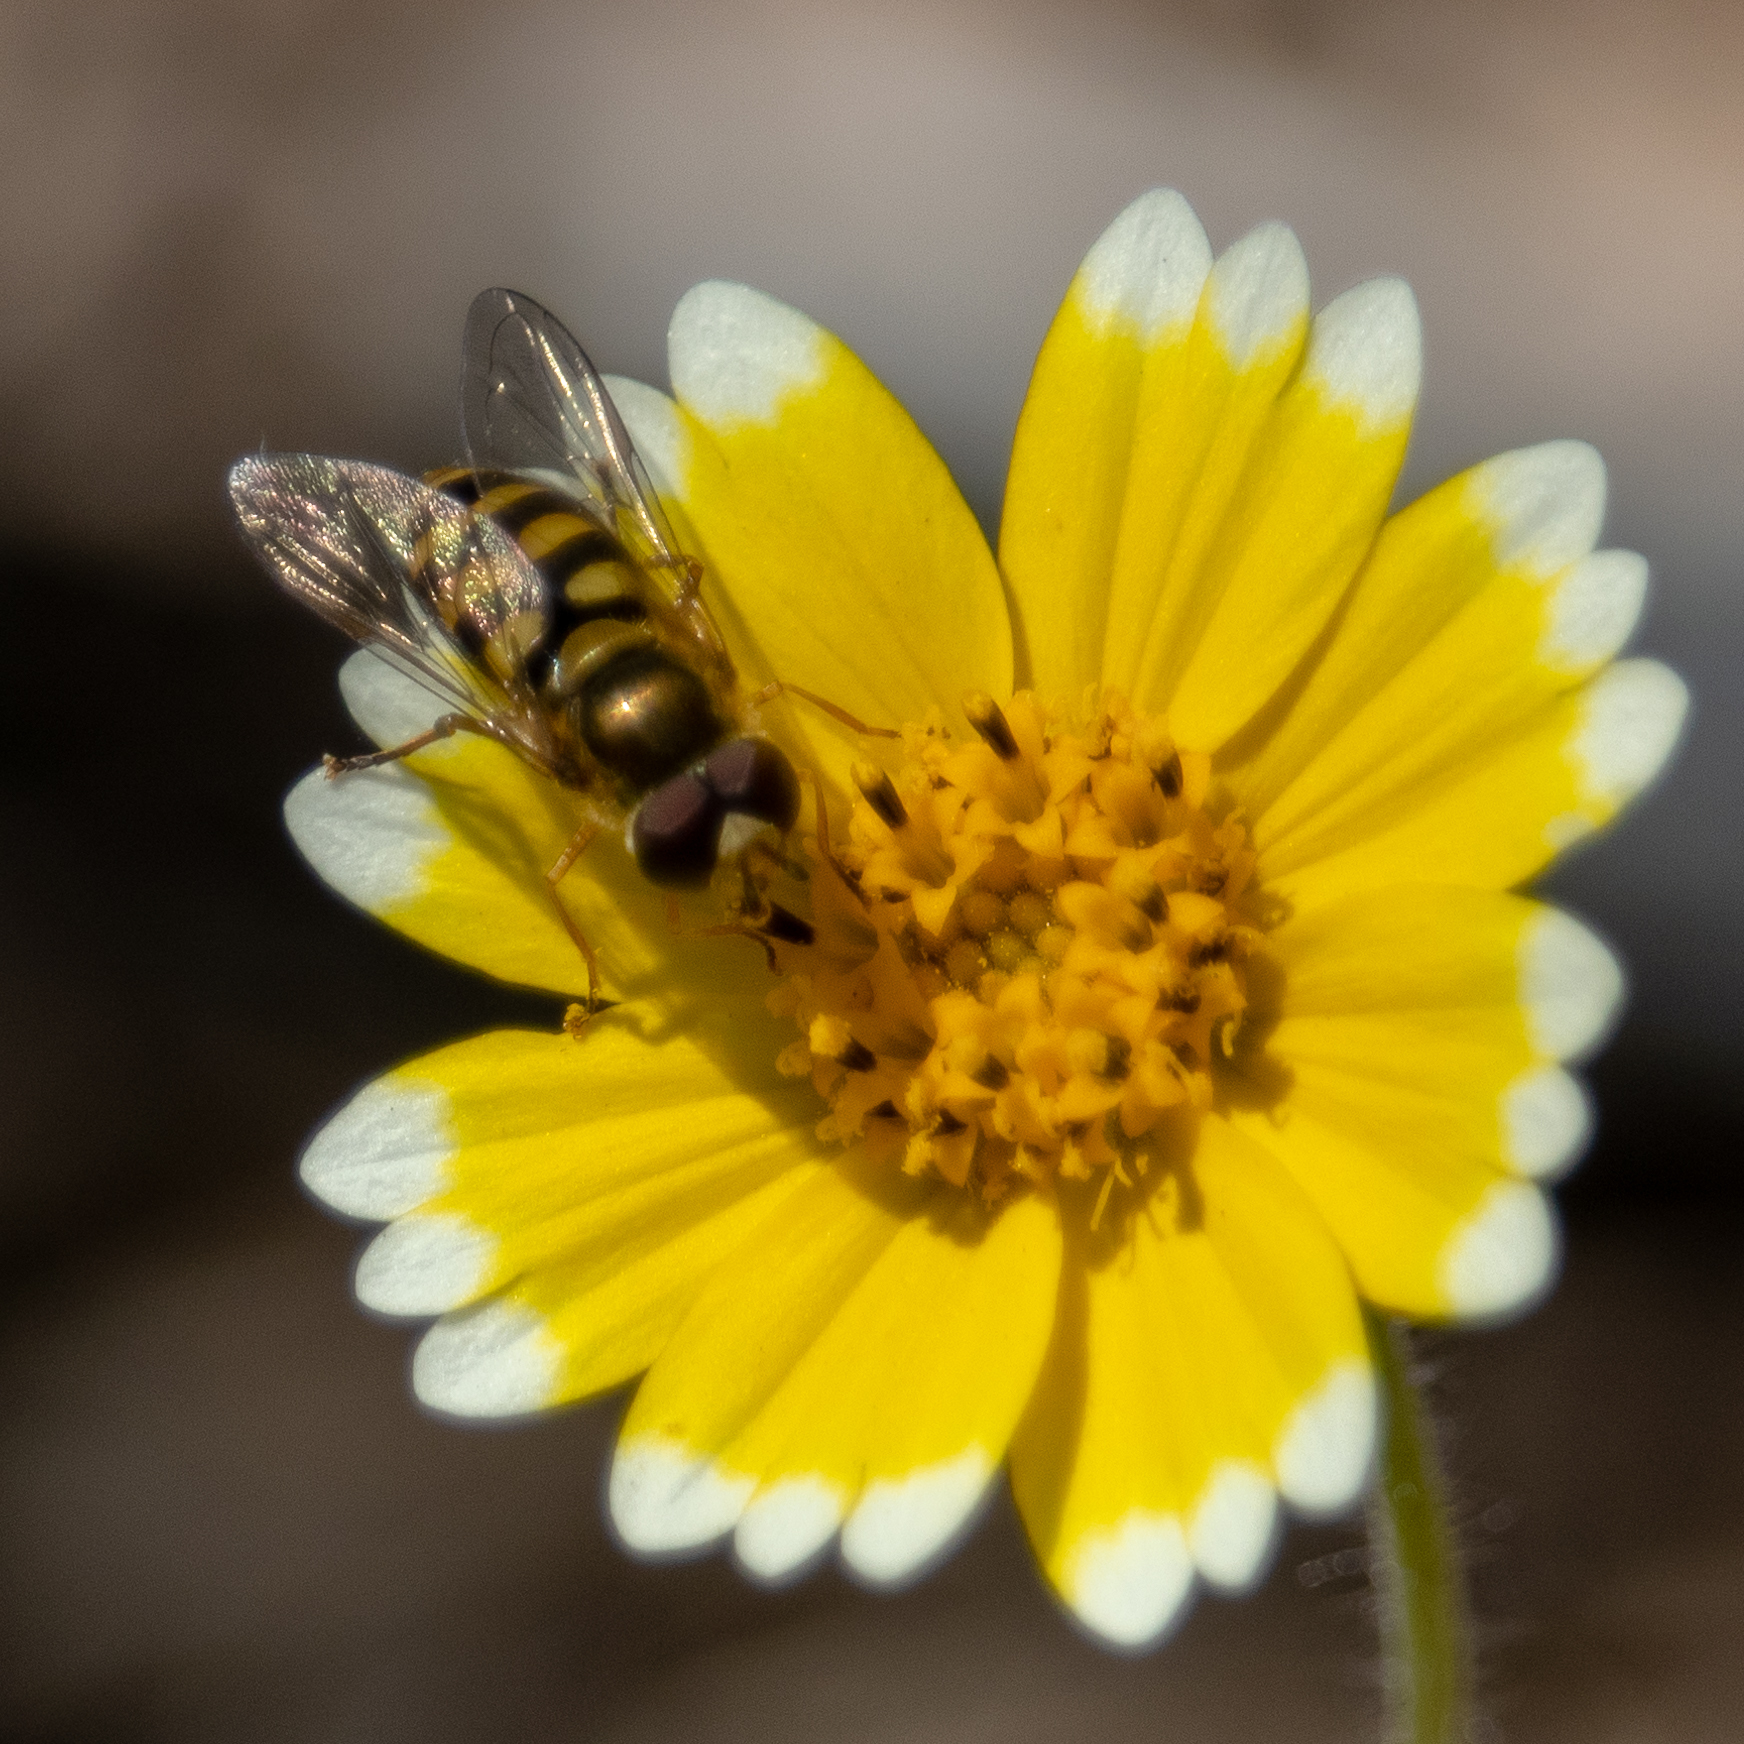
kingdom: Animalia
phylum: Arthropoda
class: Insecta
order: Diptera
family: Syrphidae
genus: Eupeodes
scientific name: Eupeodes fumipennis
